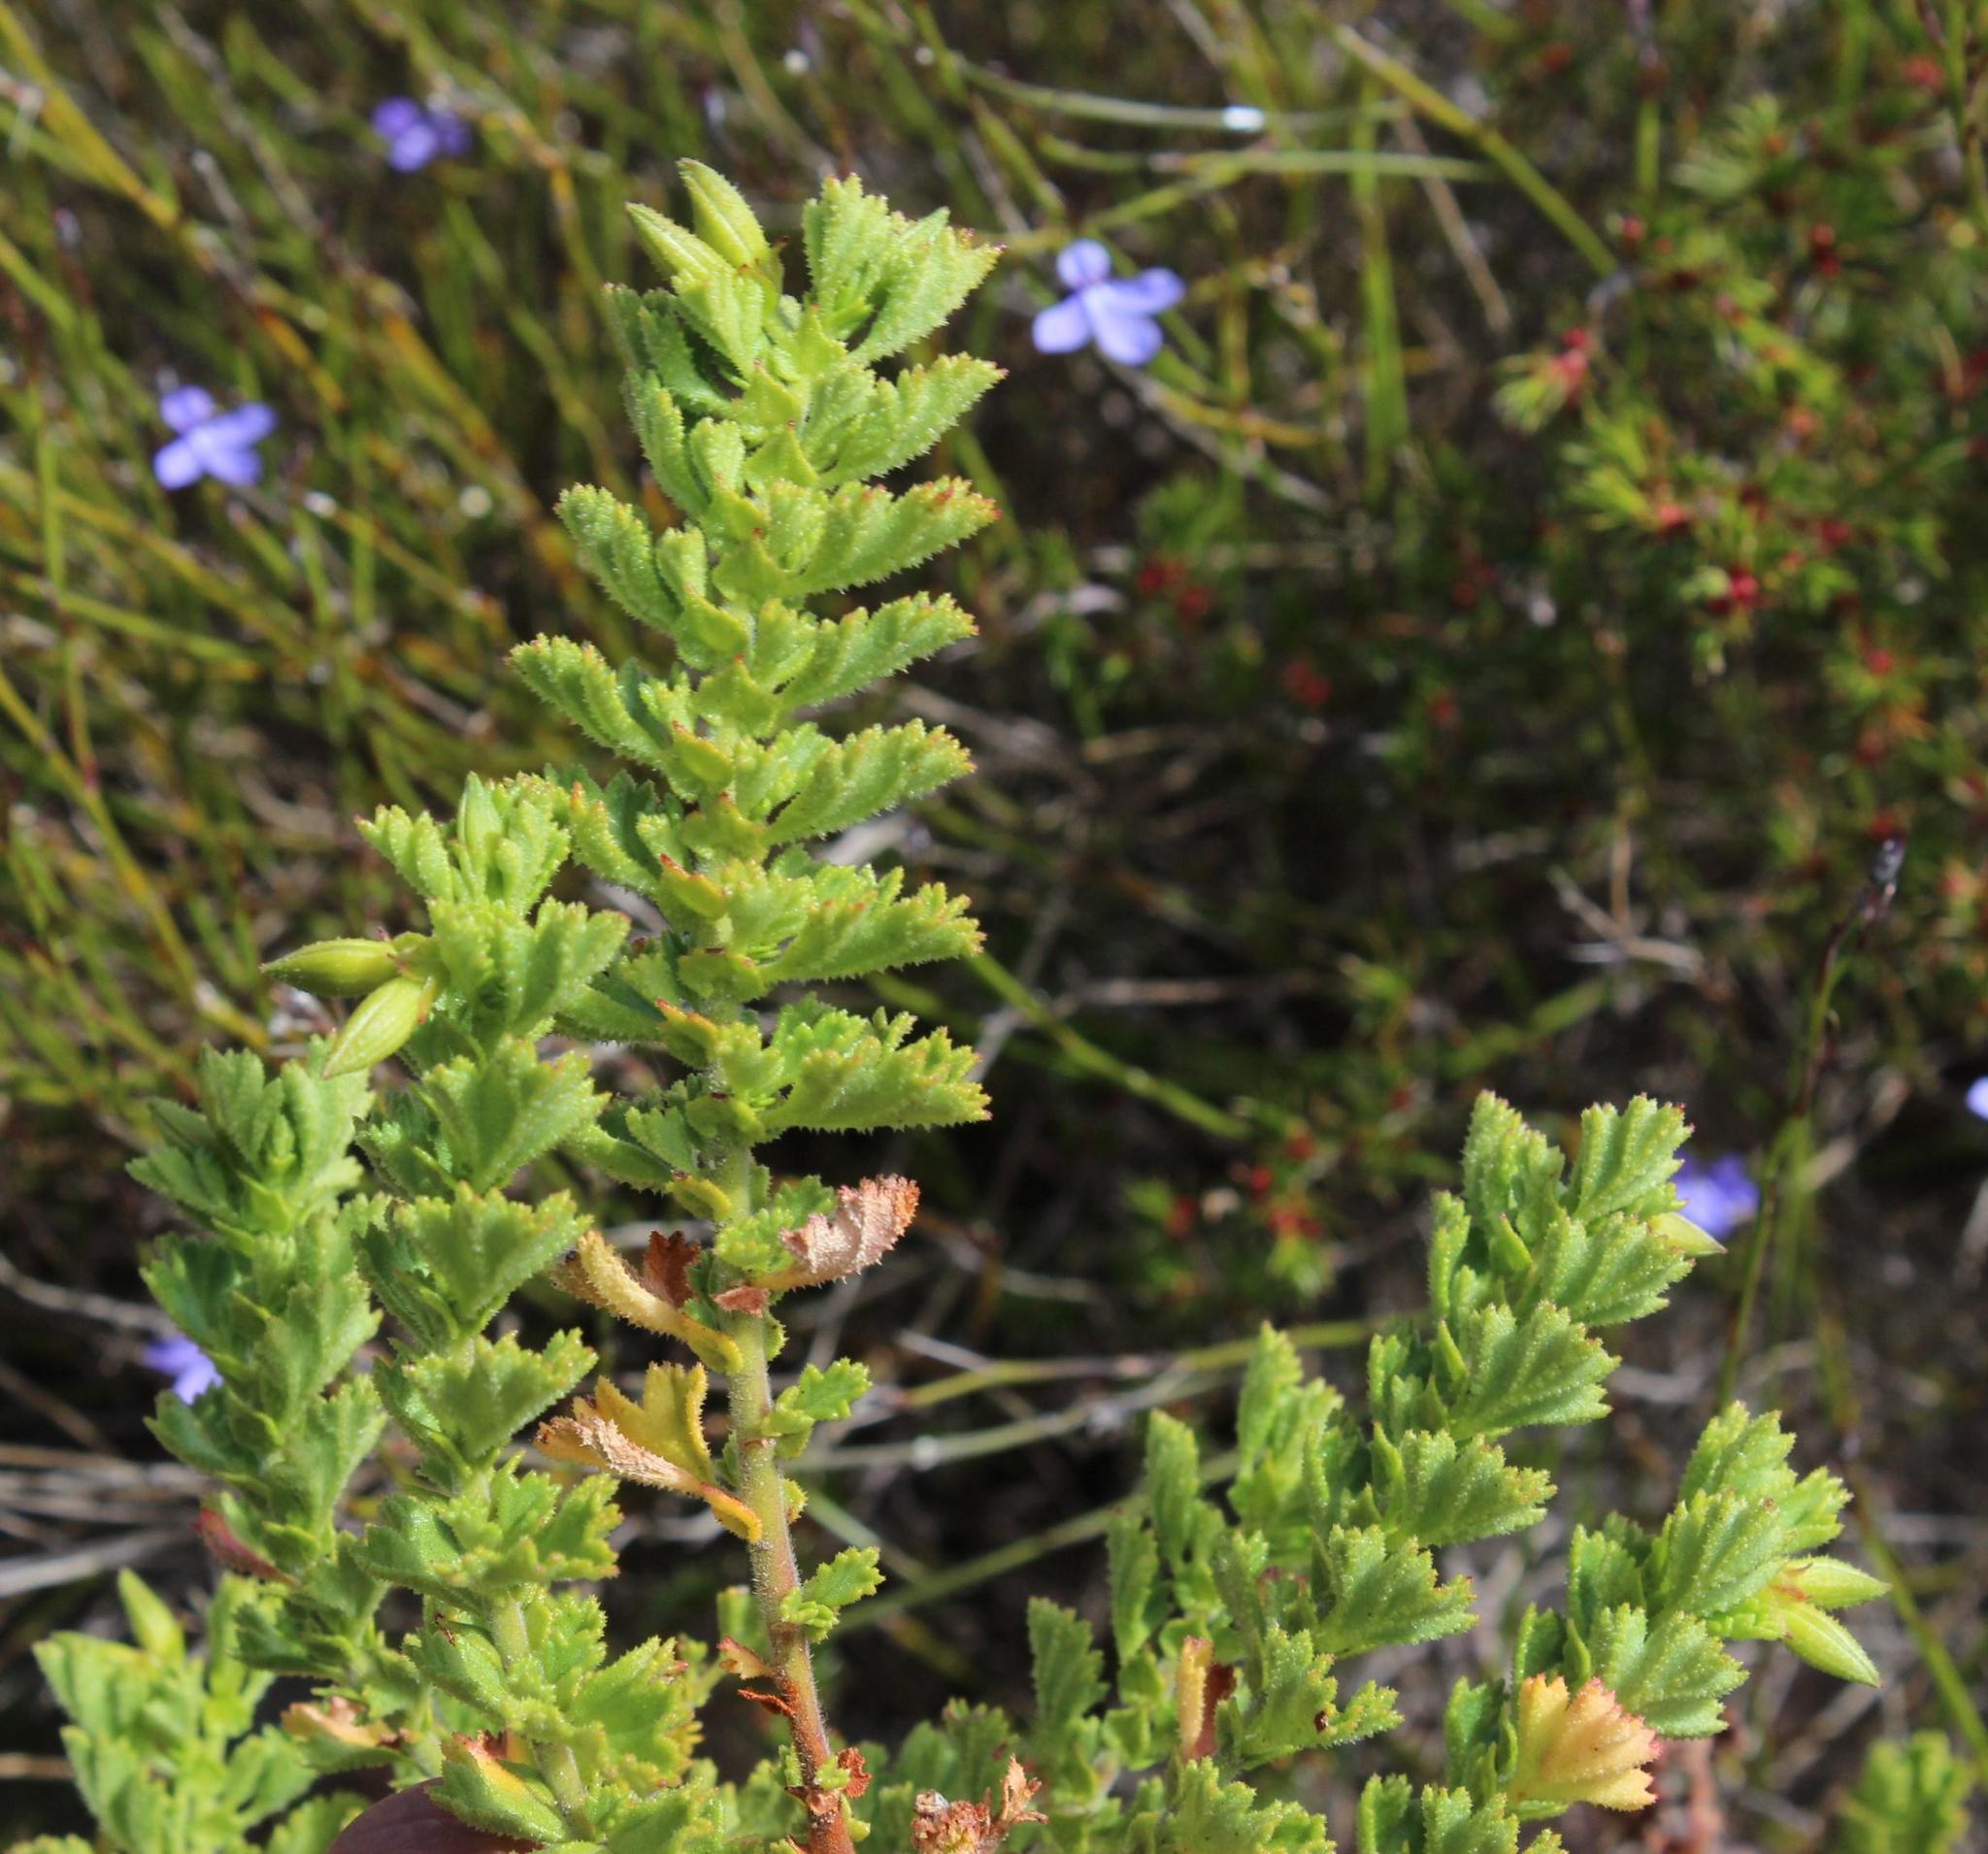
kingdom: Plantae
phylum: Tracheophyta
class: Magnoliopsida
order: Geraniales
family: Geraniaceae
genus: Pelargonium
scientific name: Pelargonium hermaniifolium
